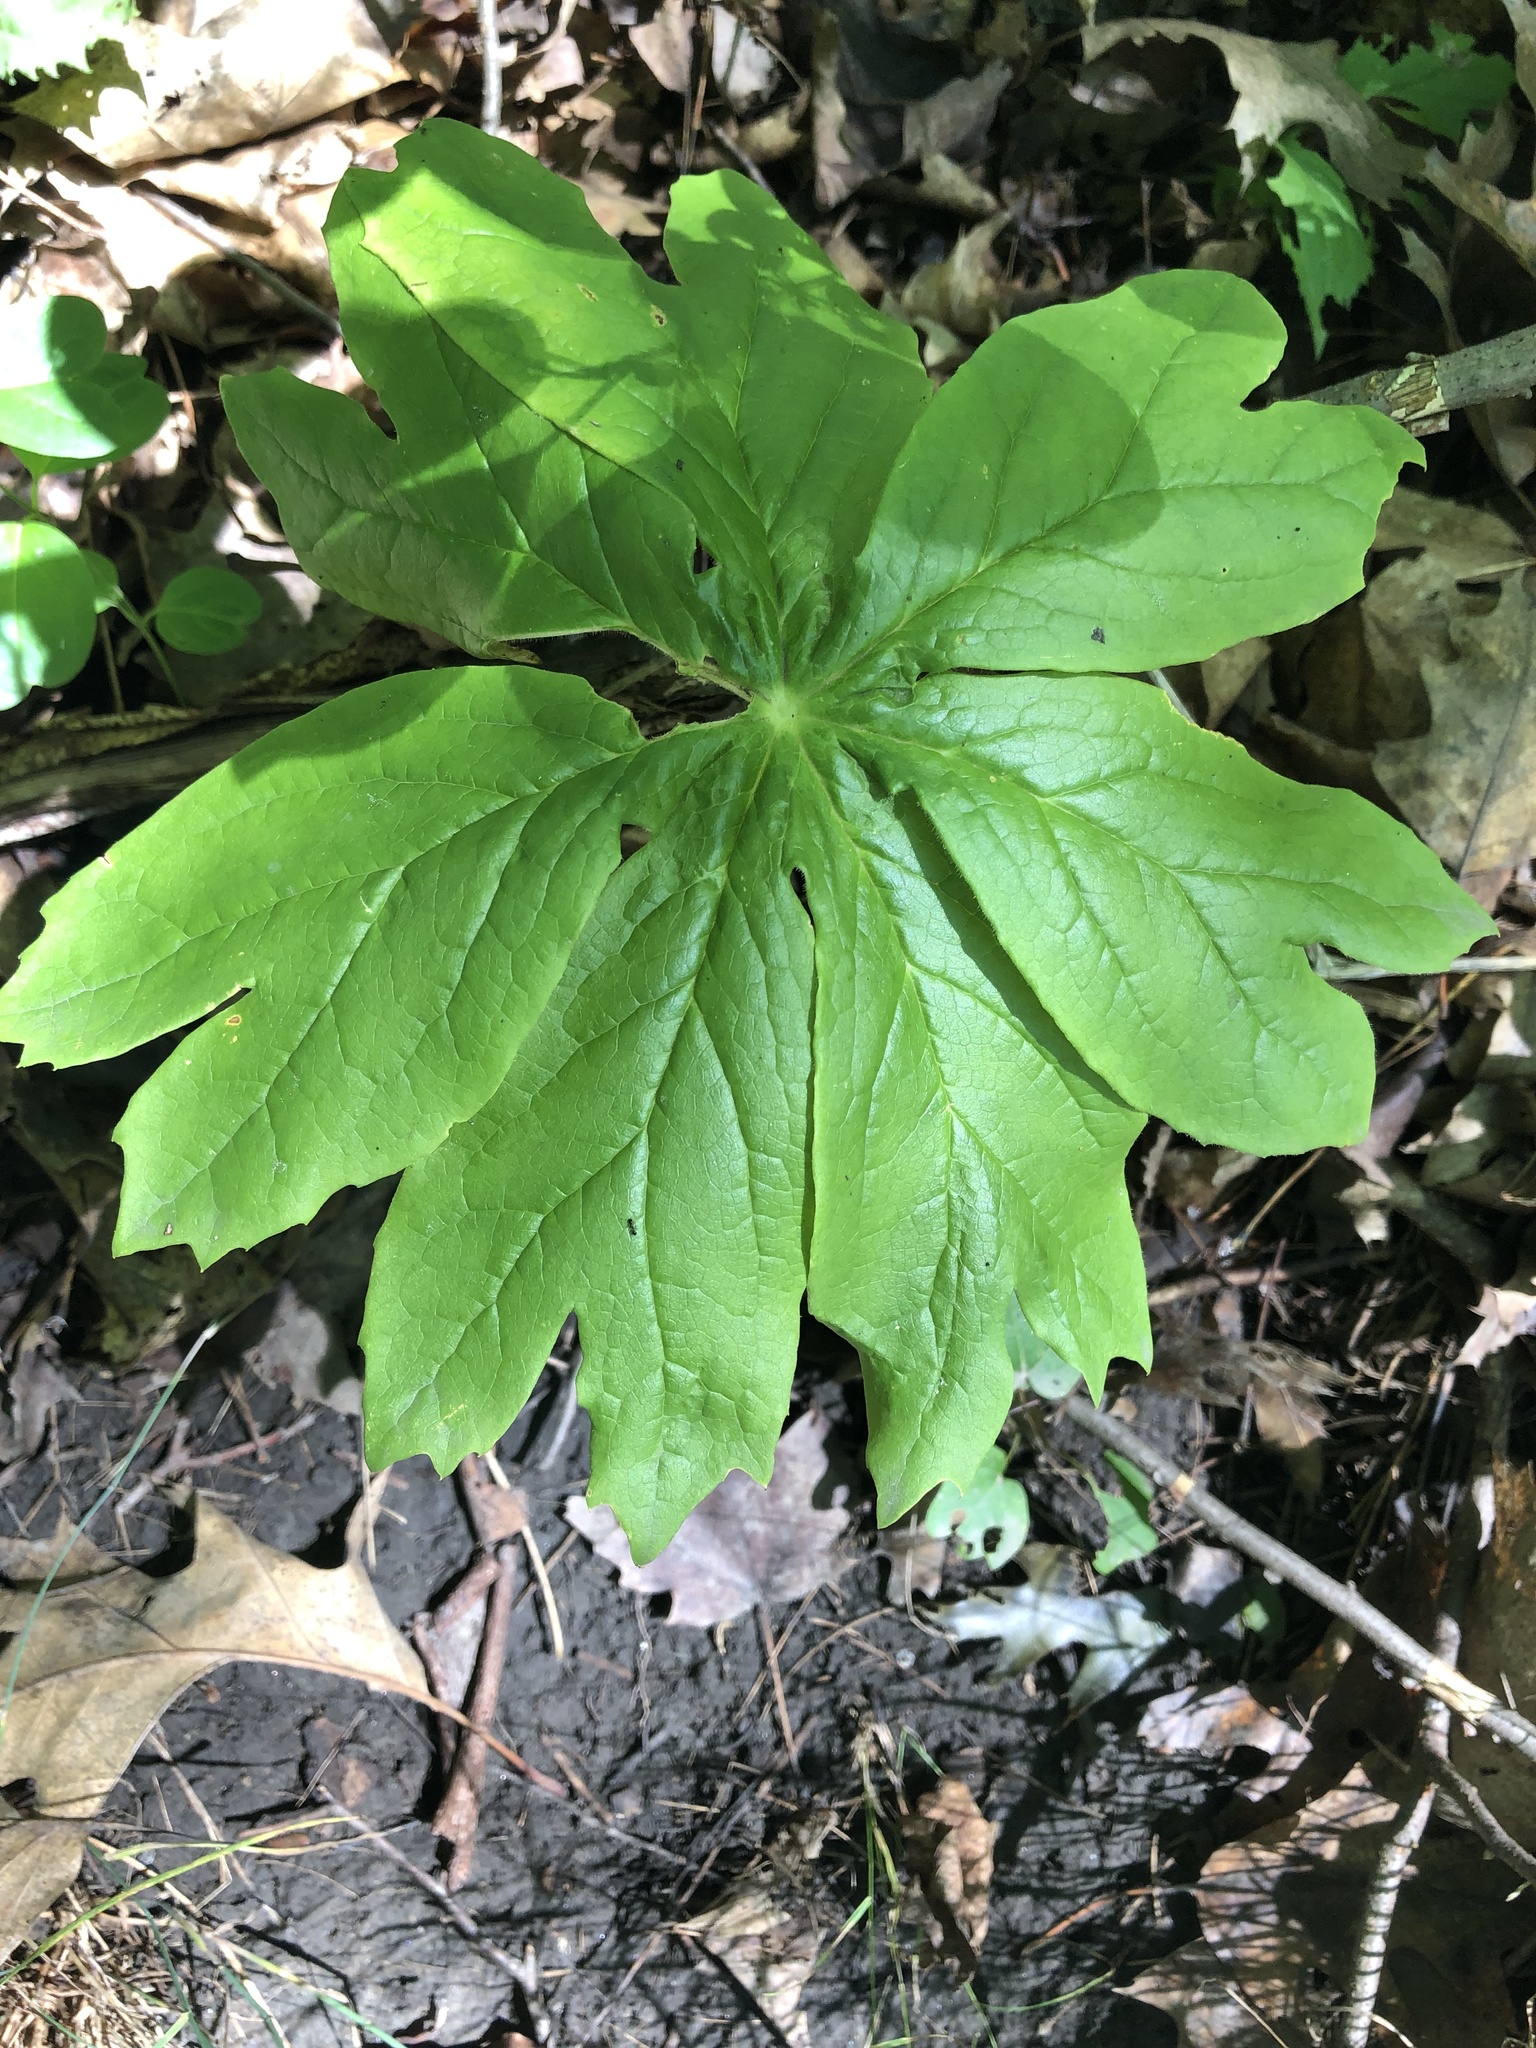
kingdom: Plantae
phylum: Tracheophyta
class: Magnoliopsida
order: Ranunculales
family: Berberidaceae
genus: Podophyllum
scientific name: Podophyllum peltatum
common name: Wild mandrake
